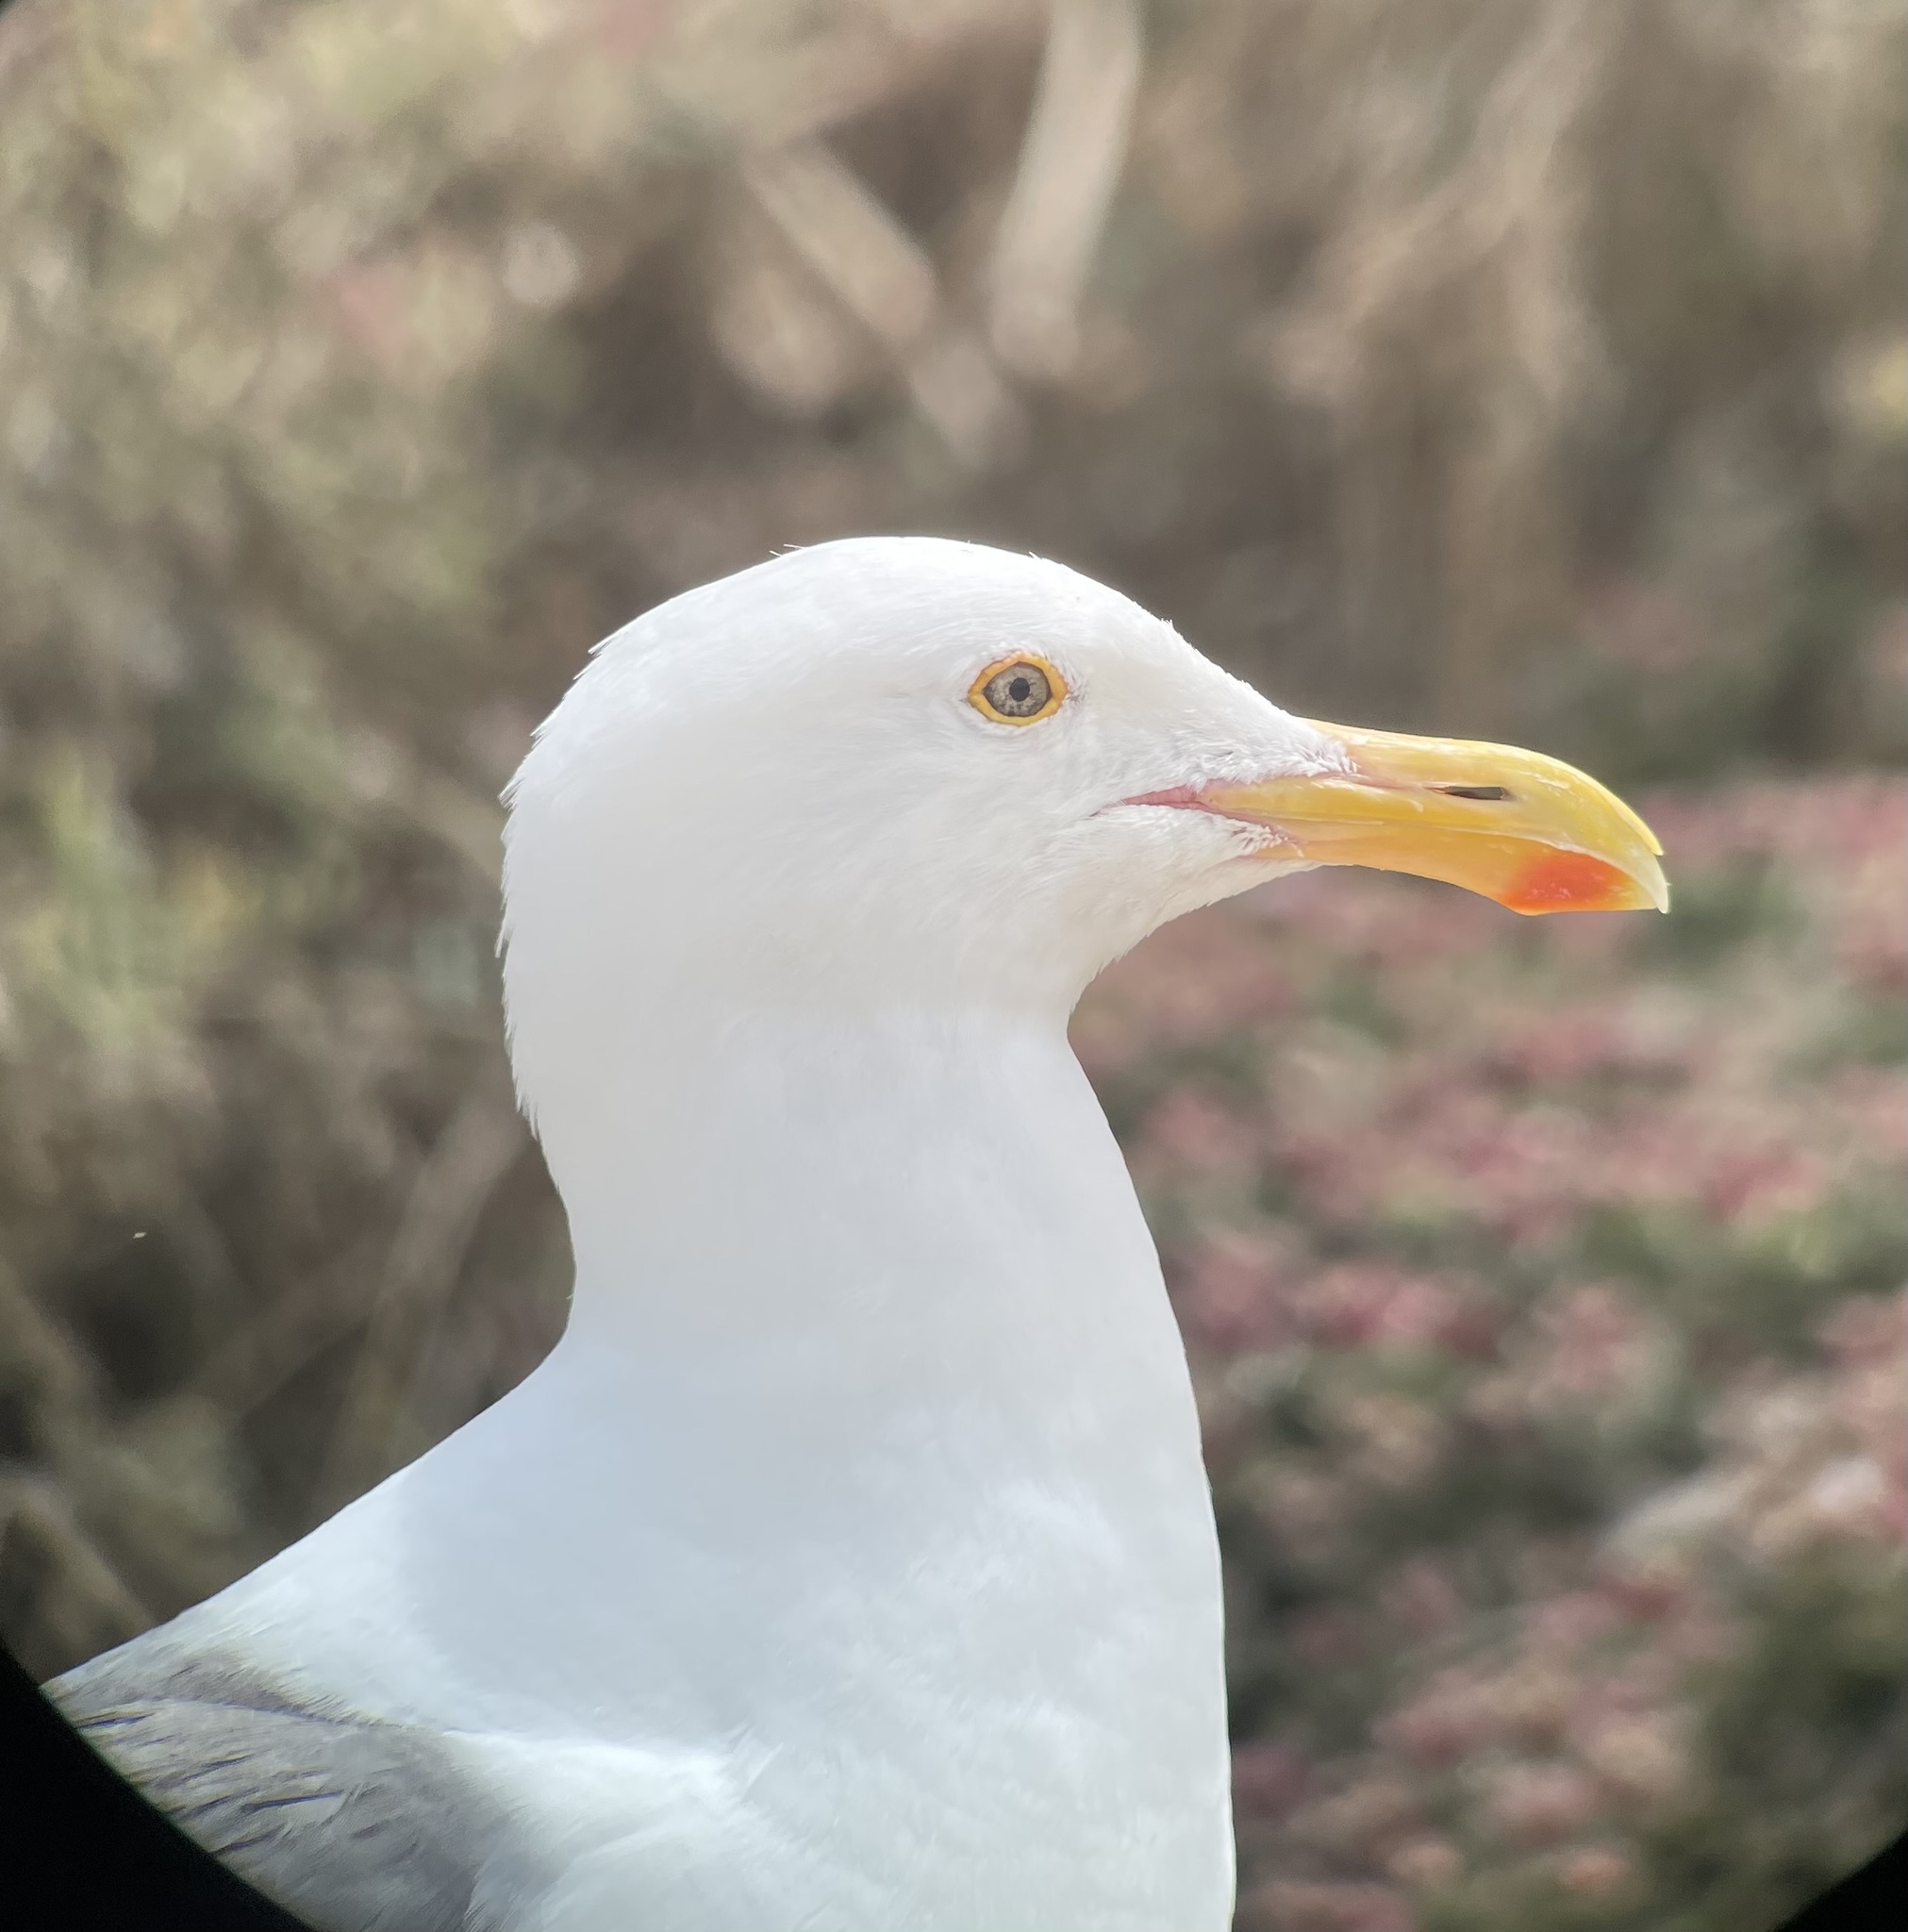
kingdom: Animalia
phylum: Chordata
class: Aves
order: Charadriiformes
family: Laridae
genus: Larus
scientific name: Larus occidentalis
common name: Western gull
